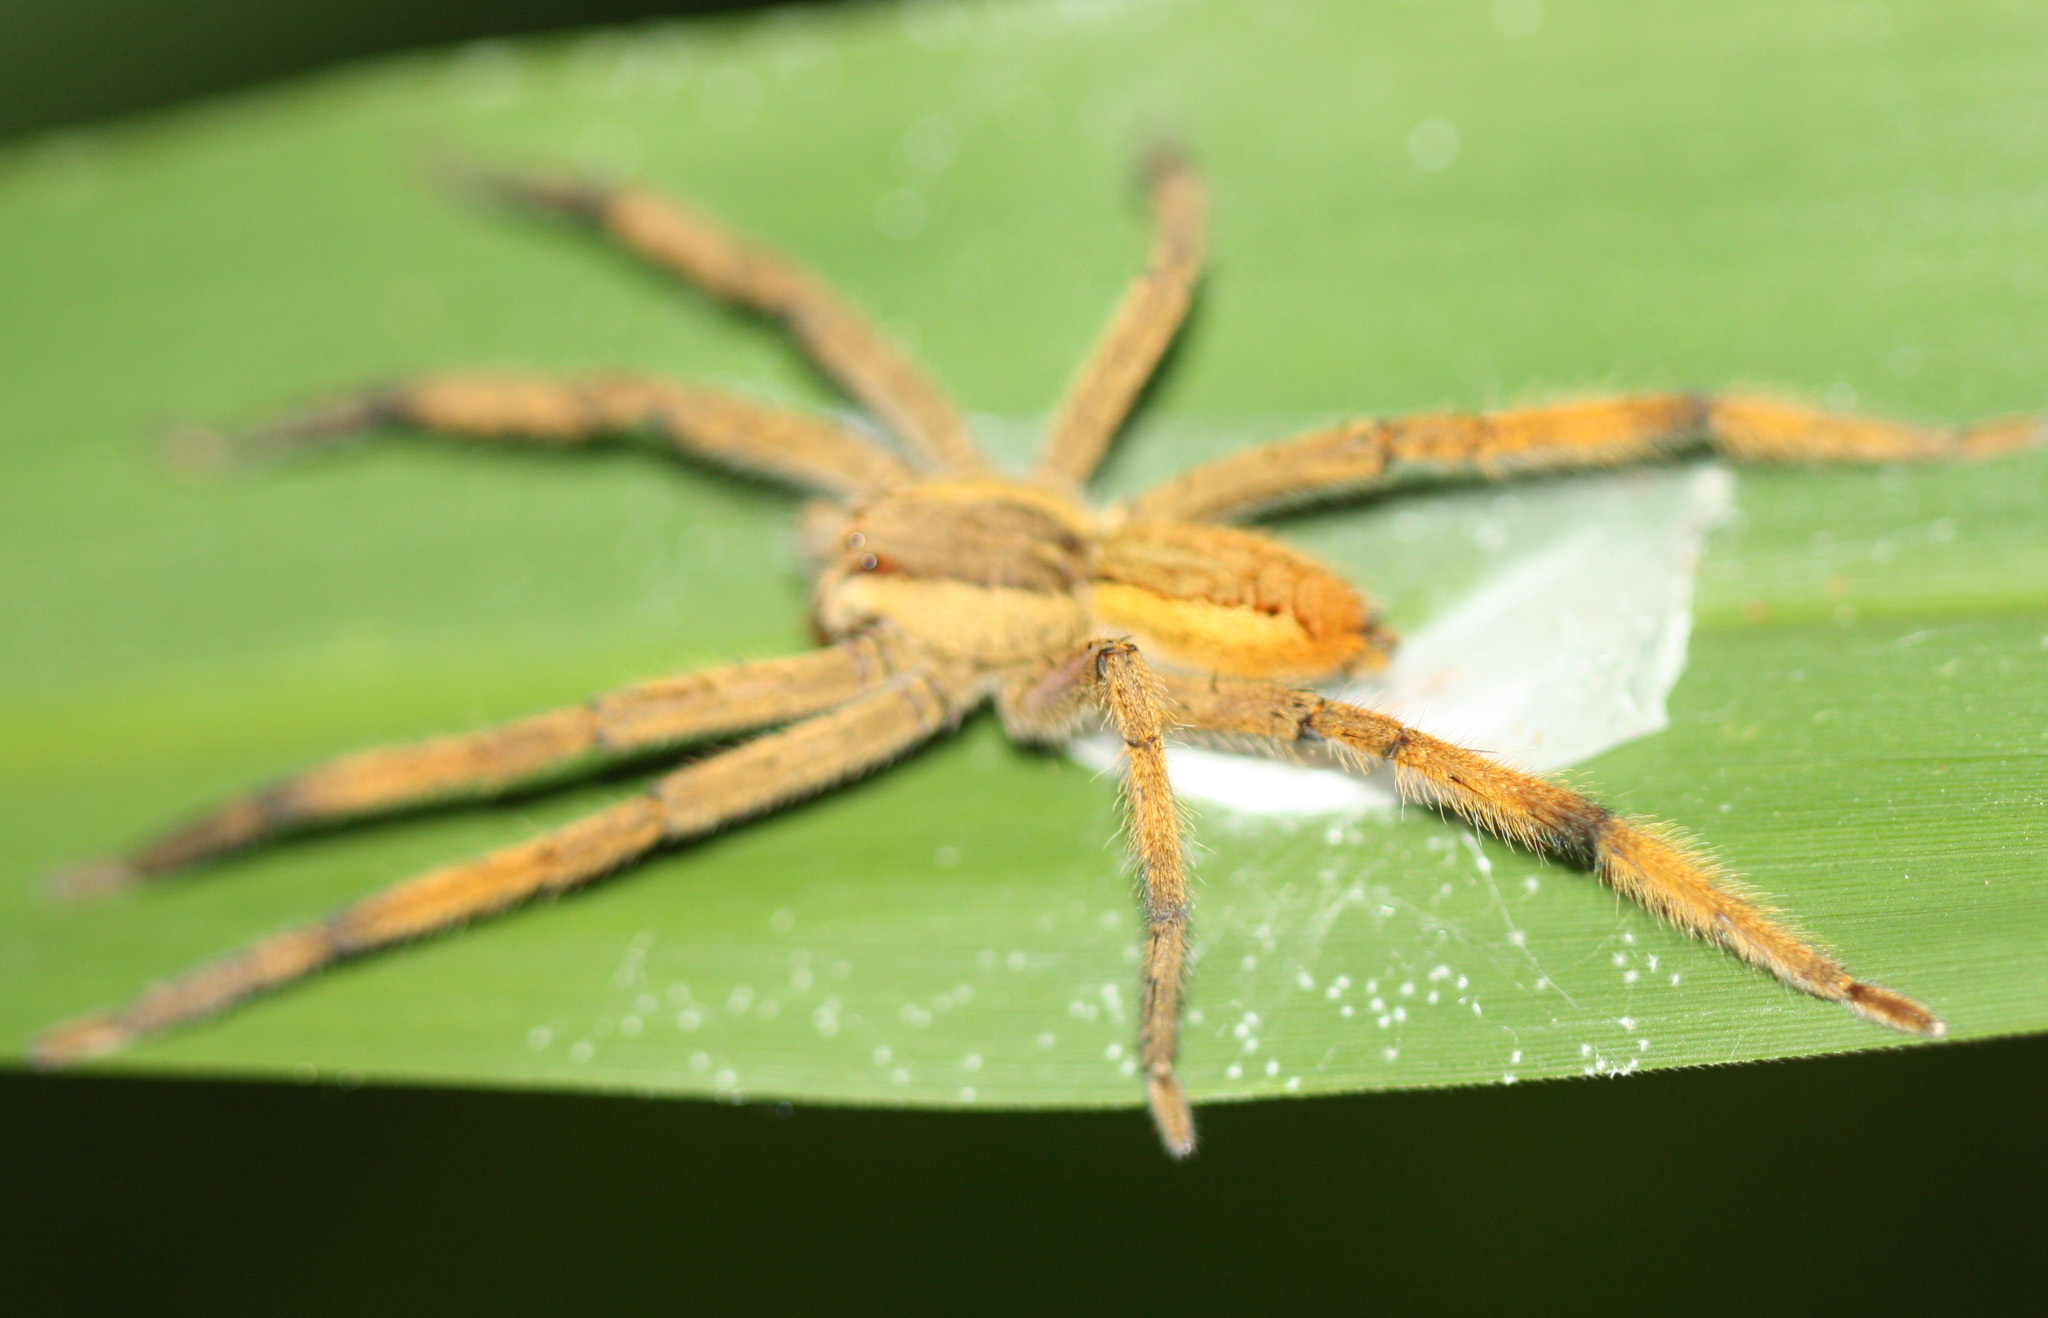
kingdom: Animalia
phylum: Arthropoda
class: Arachnida
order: Araneae
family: Trechaleidae
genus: Cupiennius
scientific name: Cupiennius getazi
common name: Wandering spiders
